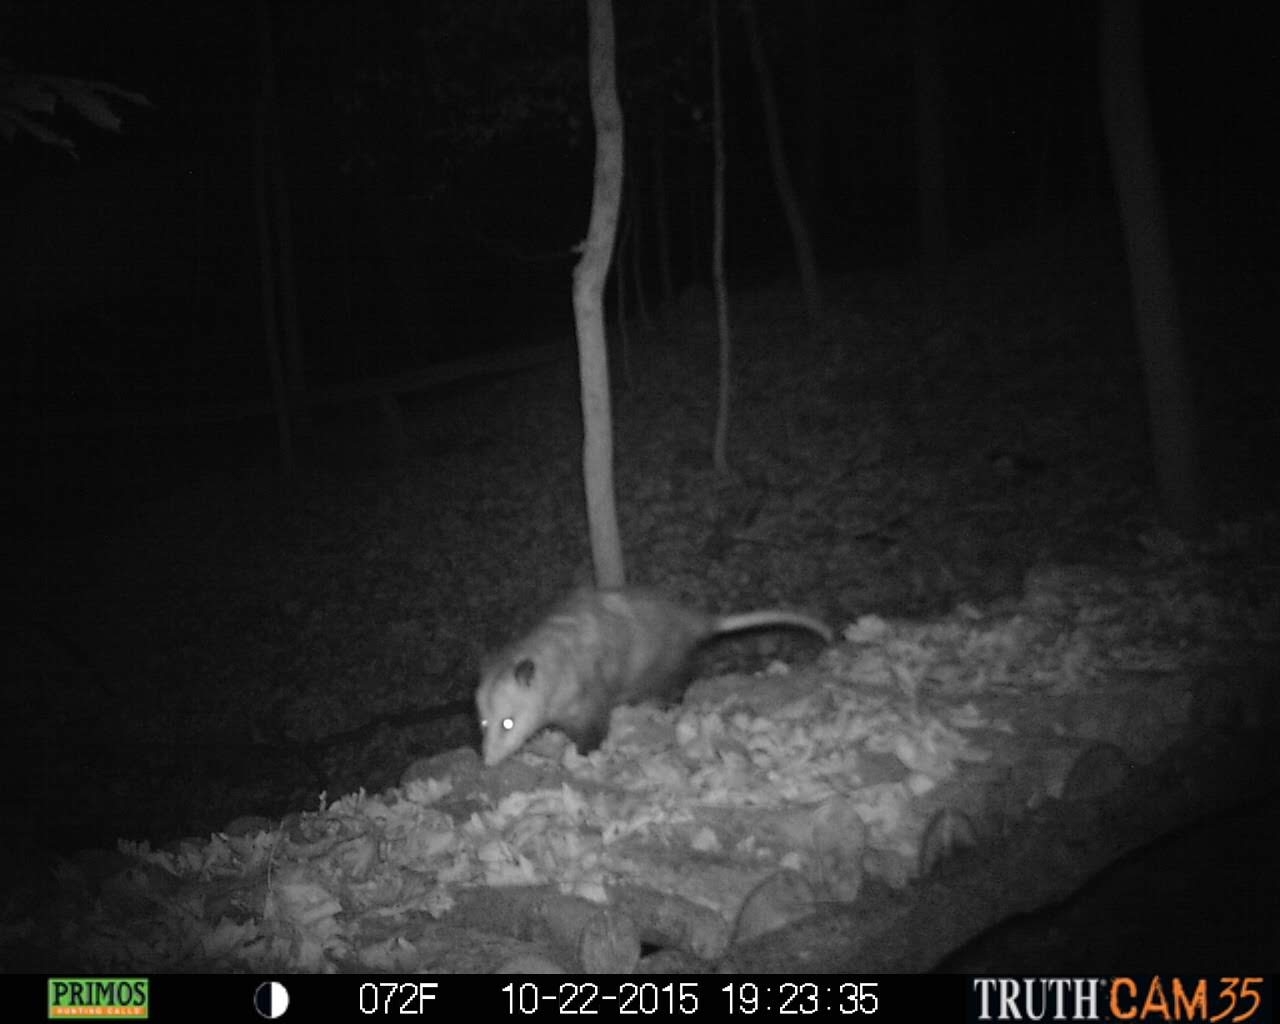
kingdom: Animalia
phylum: Chordata
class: Mammalia
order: Didelphimorphia
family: Didelphidae
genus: Didelphis
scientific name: Didelphis virginiana
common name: Virginia opossum
